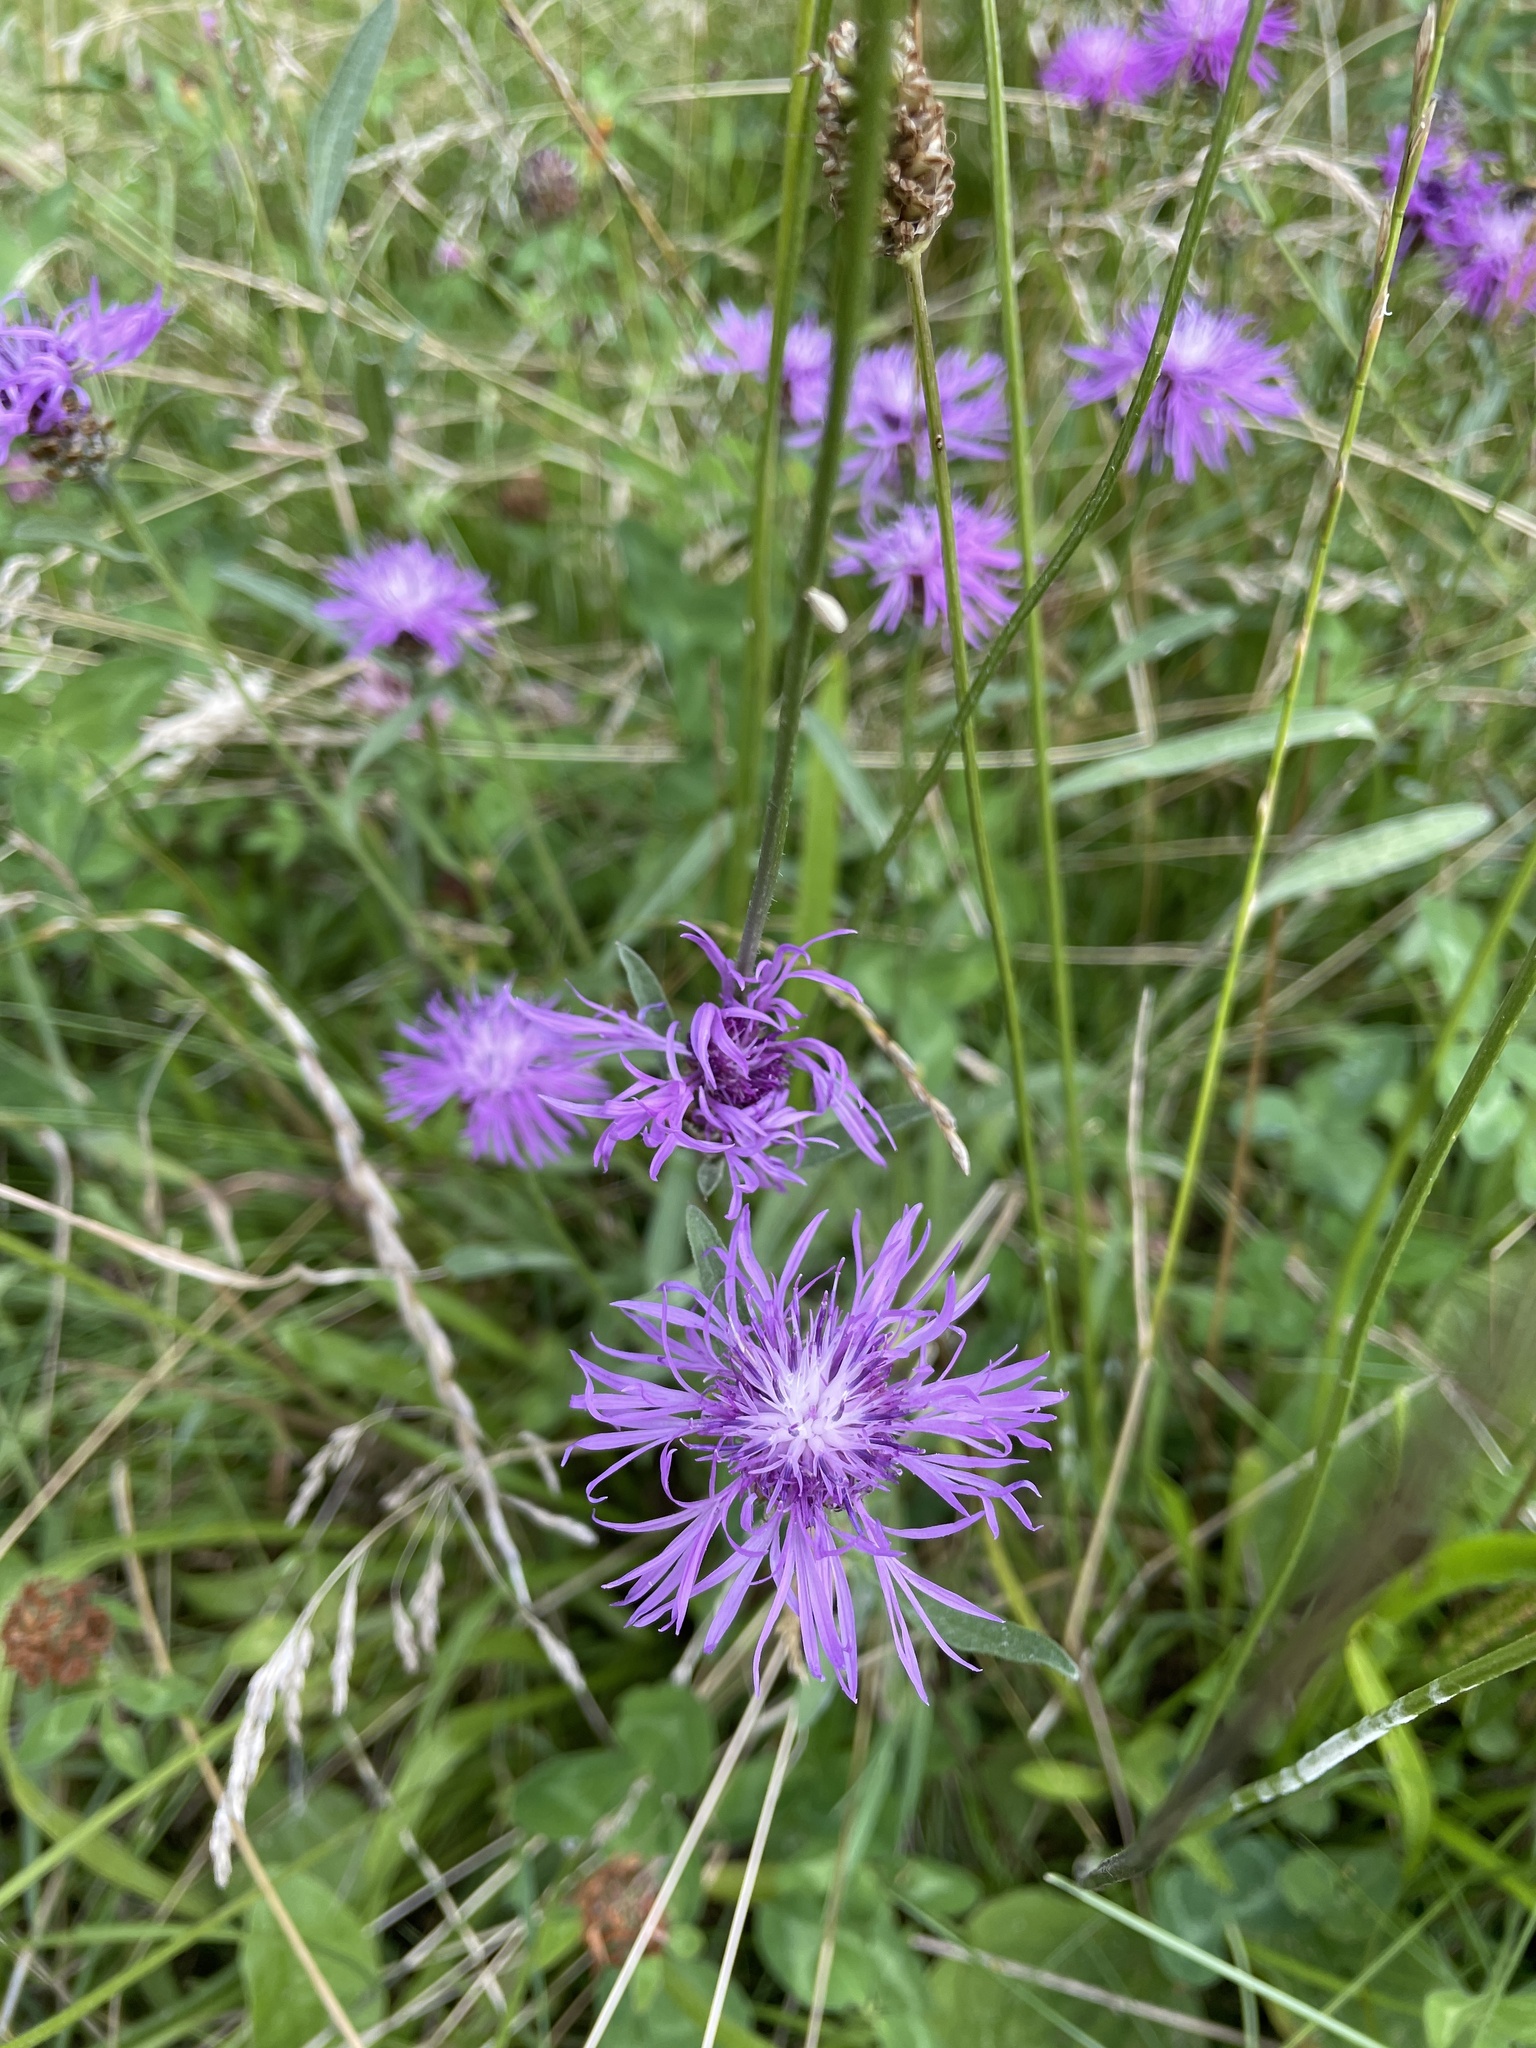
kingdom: Plantae
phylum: Tracheophyta
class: Magnoliopsida
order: Asterales
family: Asteraceae
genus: Centaurea
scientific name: Centaurea jacea
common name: Brown knapweed
